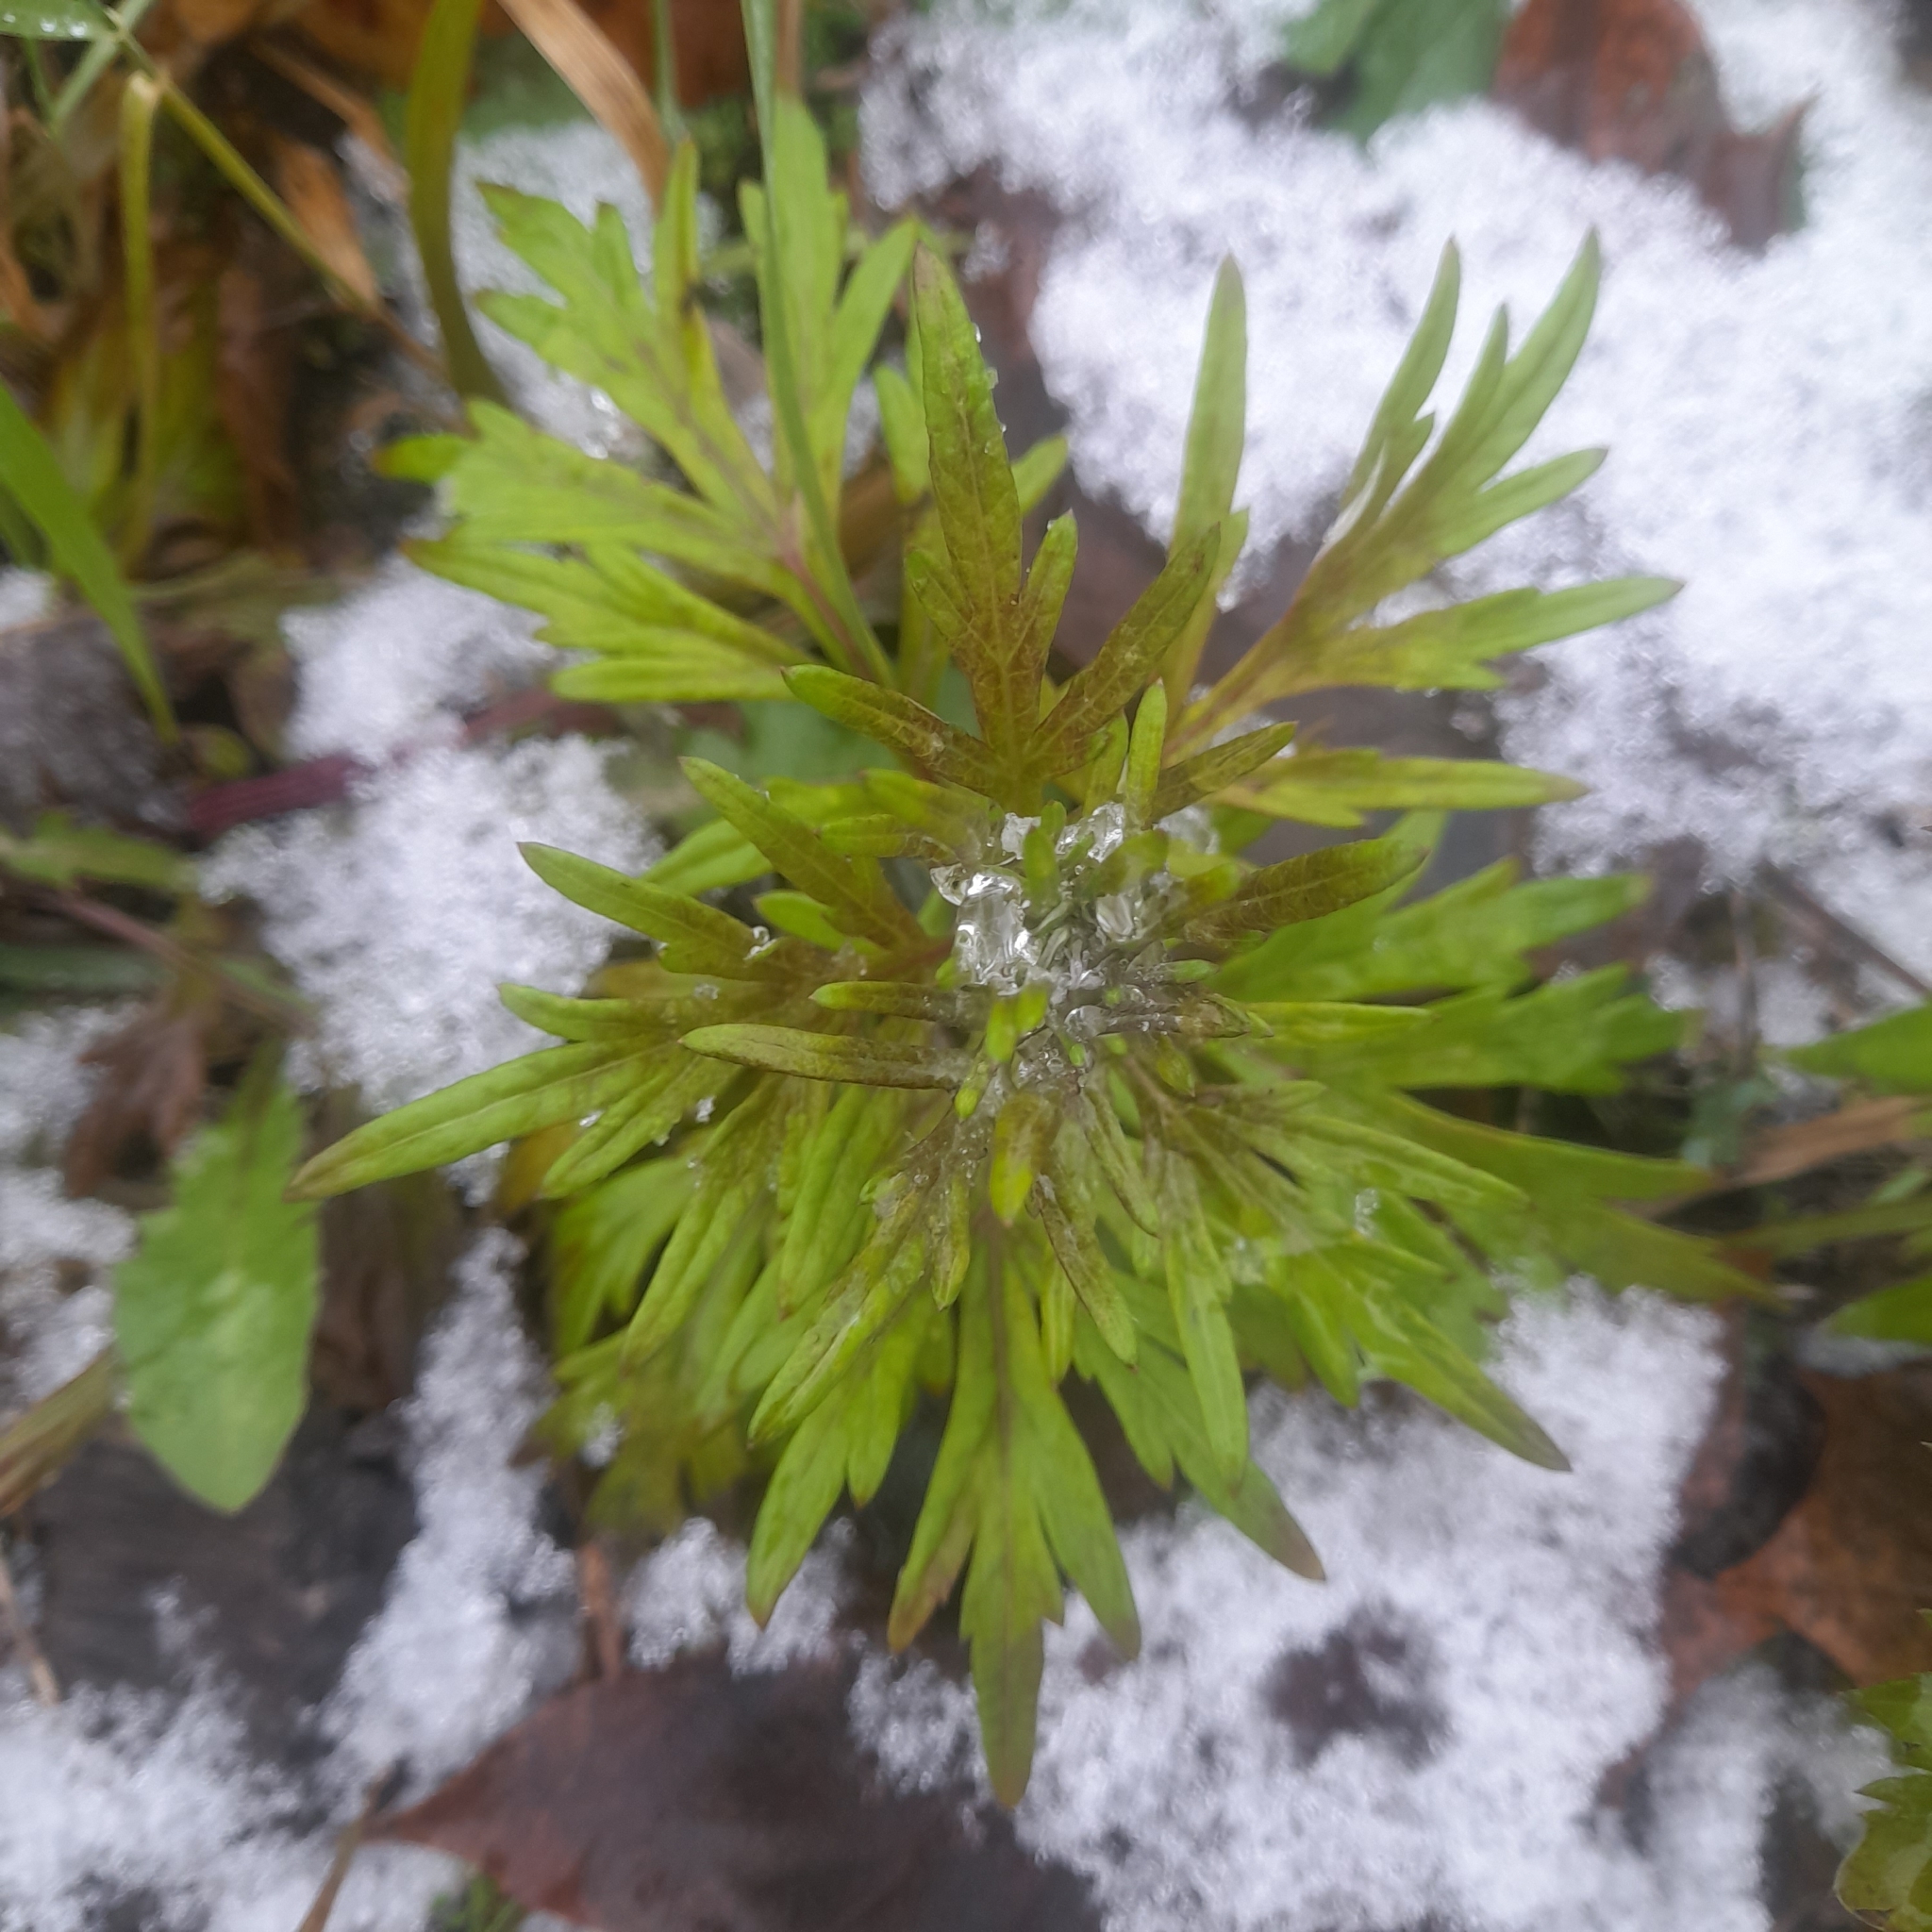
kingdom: Plantae
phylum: Tracheophyta
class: Magnoliopsida
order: Asterales
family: Asteraceae
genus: Artemisia
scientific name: Artemisia vulgaris
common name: Mugwort
